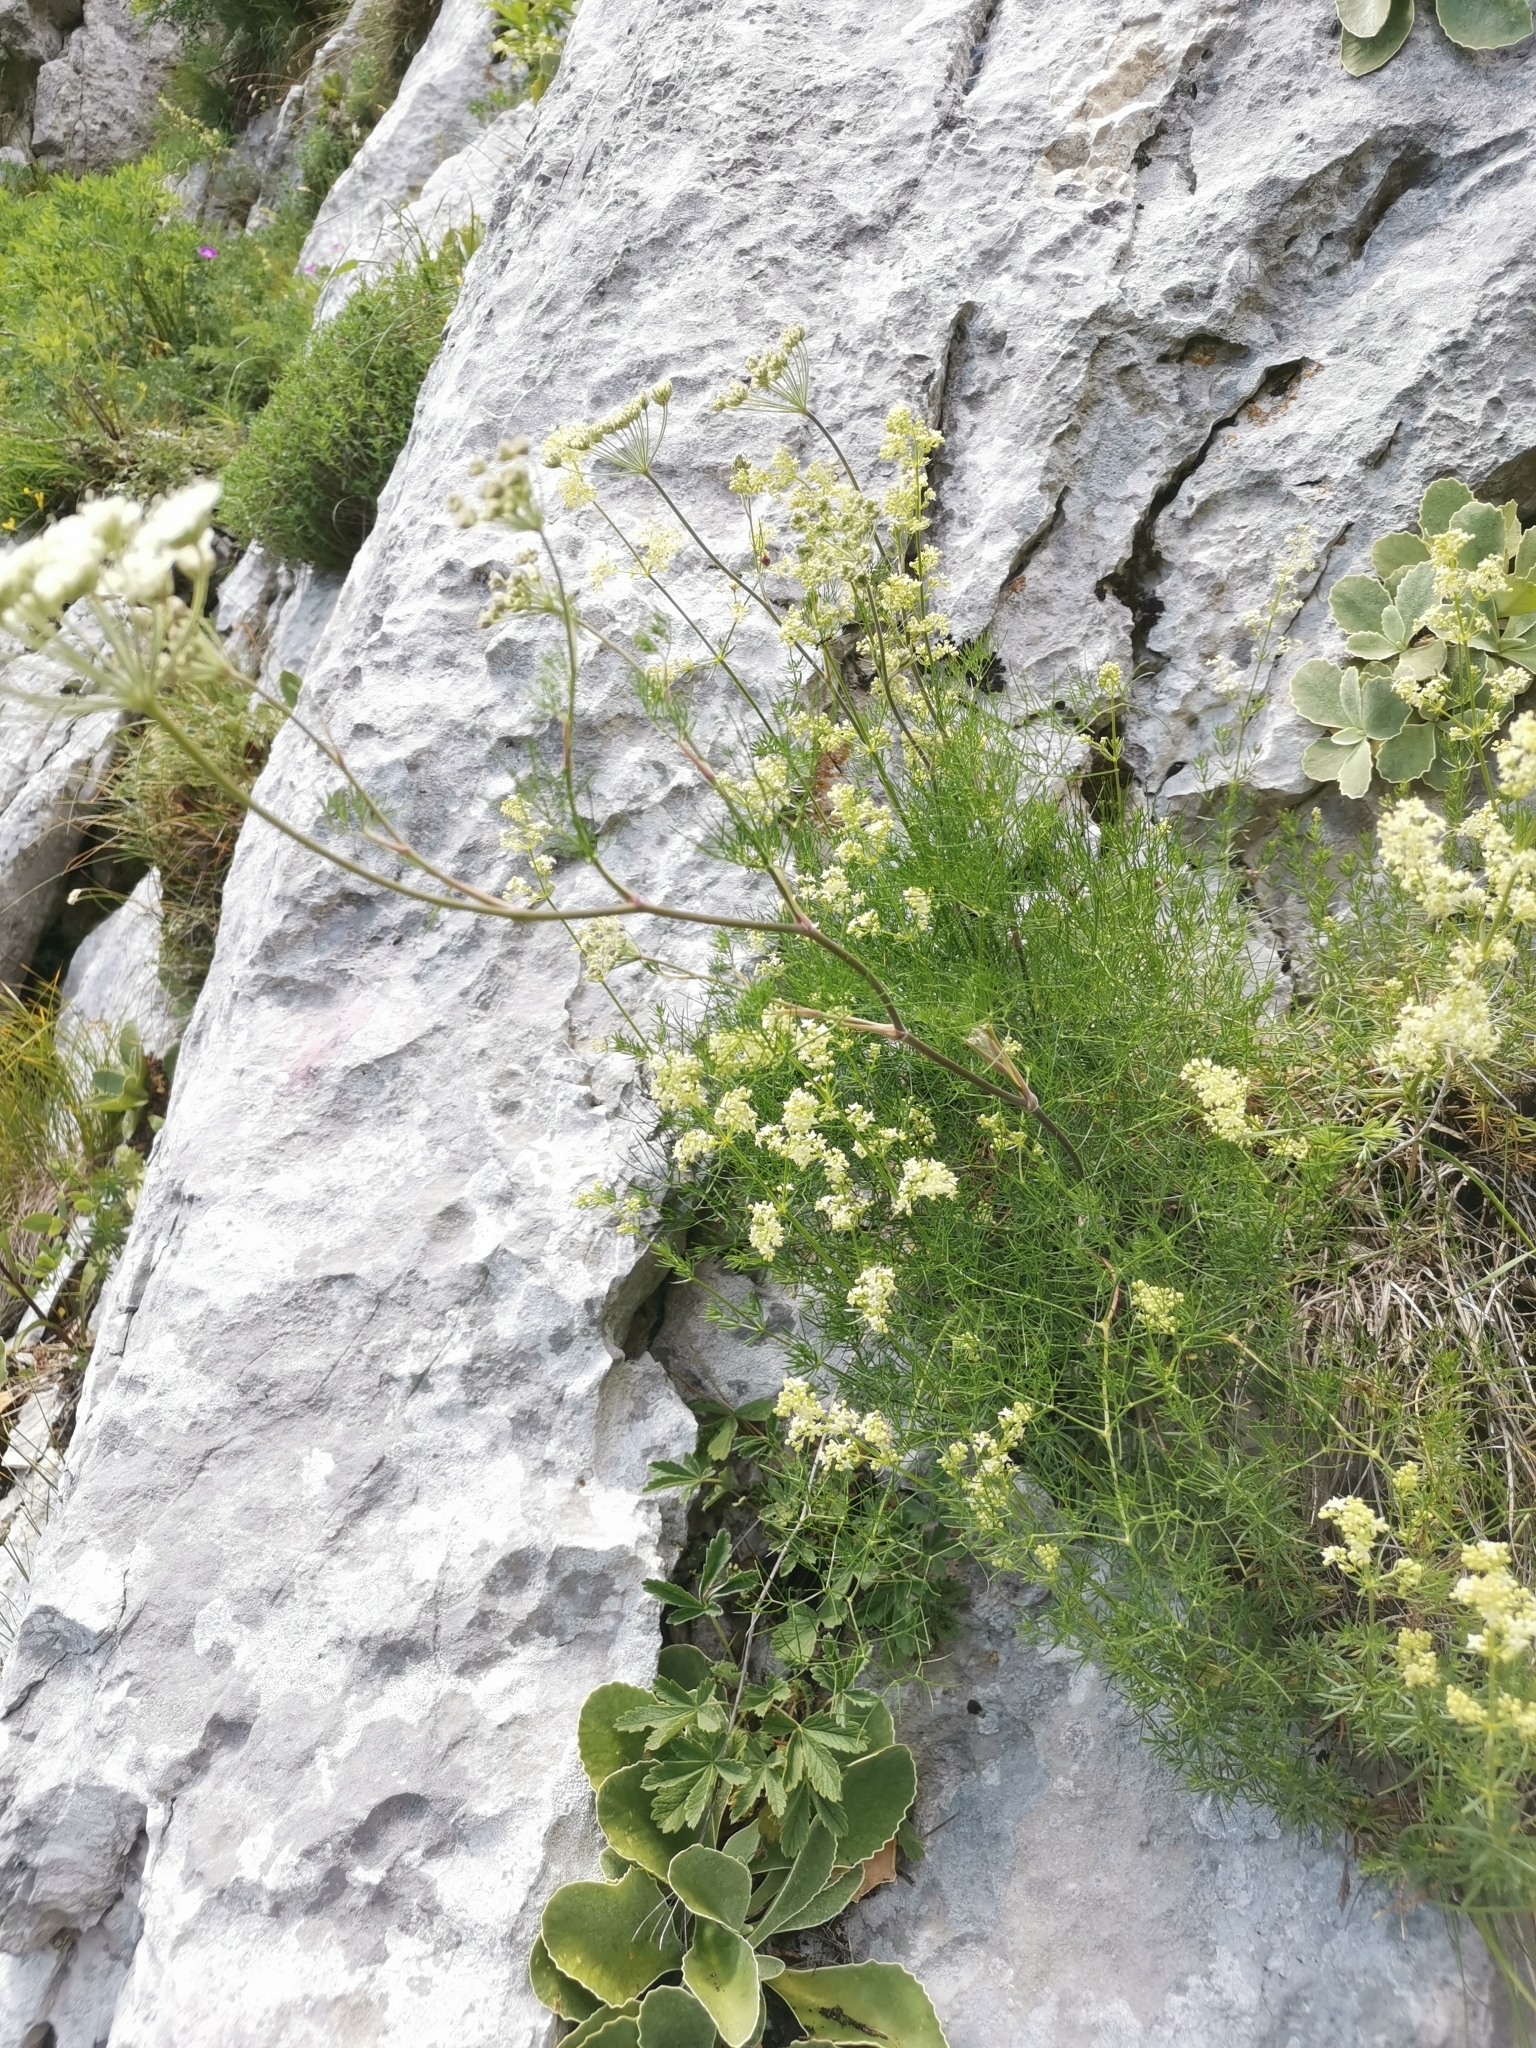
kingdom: Plantae
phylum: Tracheophyta
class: Magnoliopsida
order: Apiales
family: Apiaceae
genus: Athamanta
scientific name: Athamanta turbith
